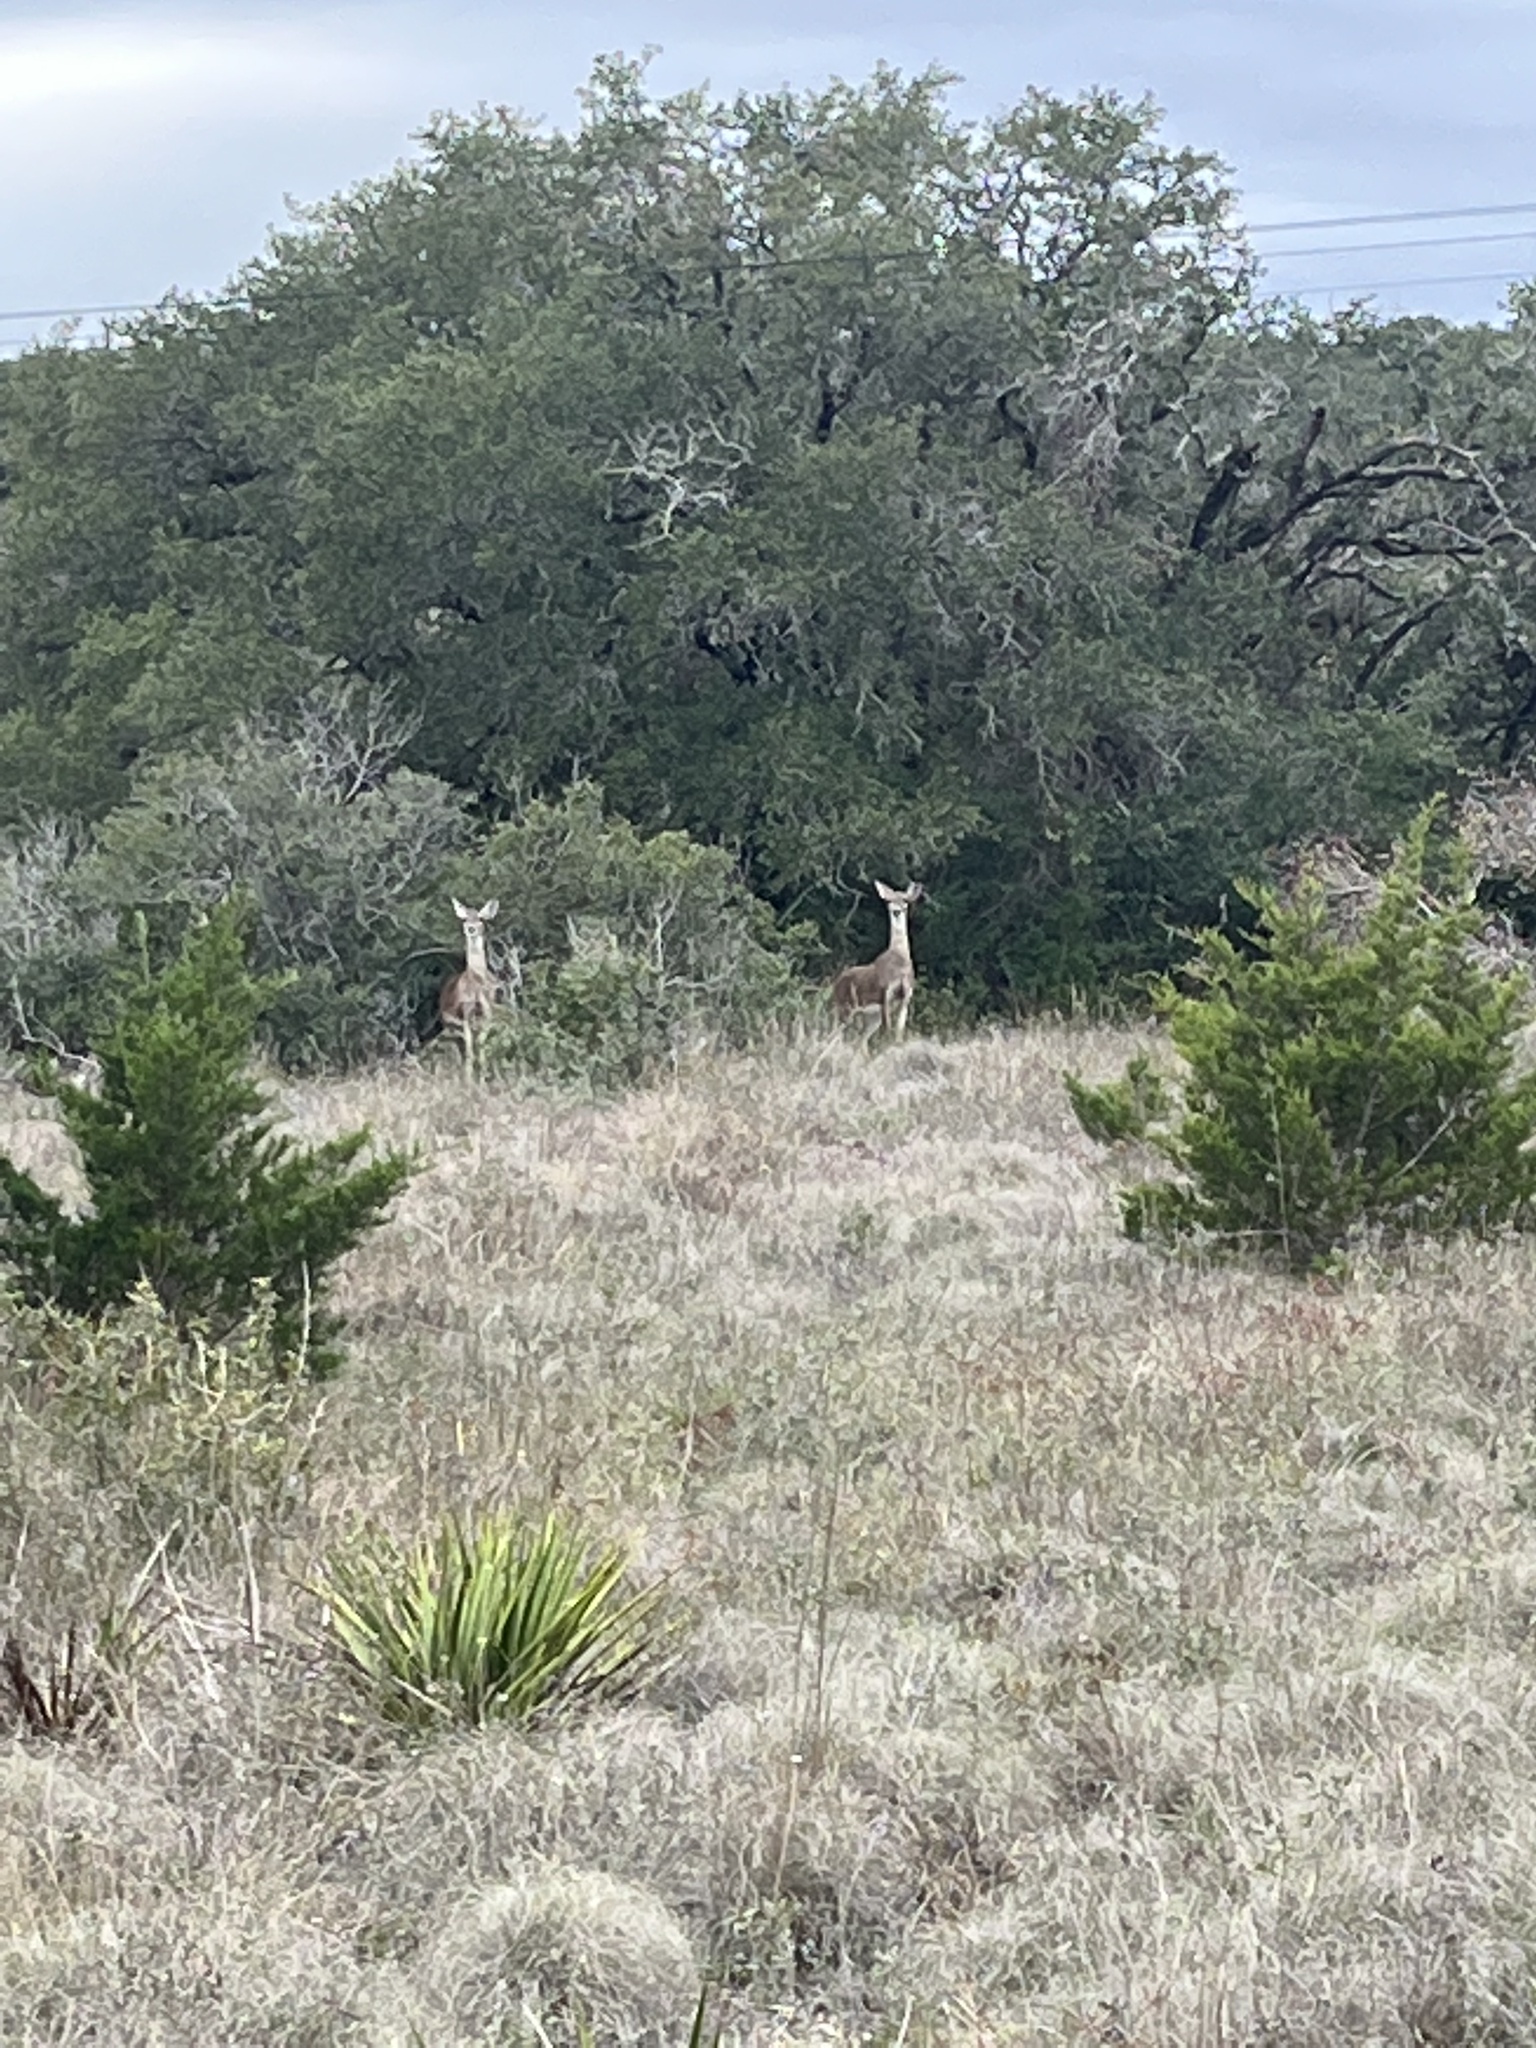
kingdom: Animalia
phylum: Chordata
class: Mammalia
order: Artiodactyla
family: Cervidae
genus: Odocoileus
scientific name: Odocoileus virginianus
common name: White-tailed deer
